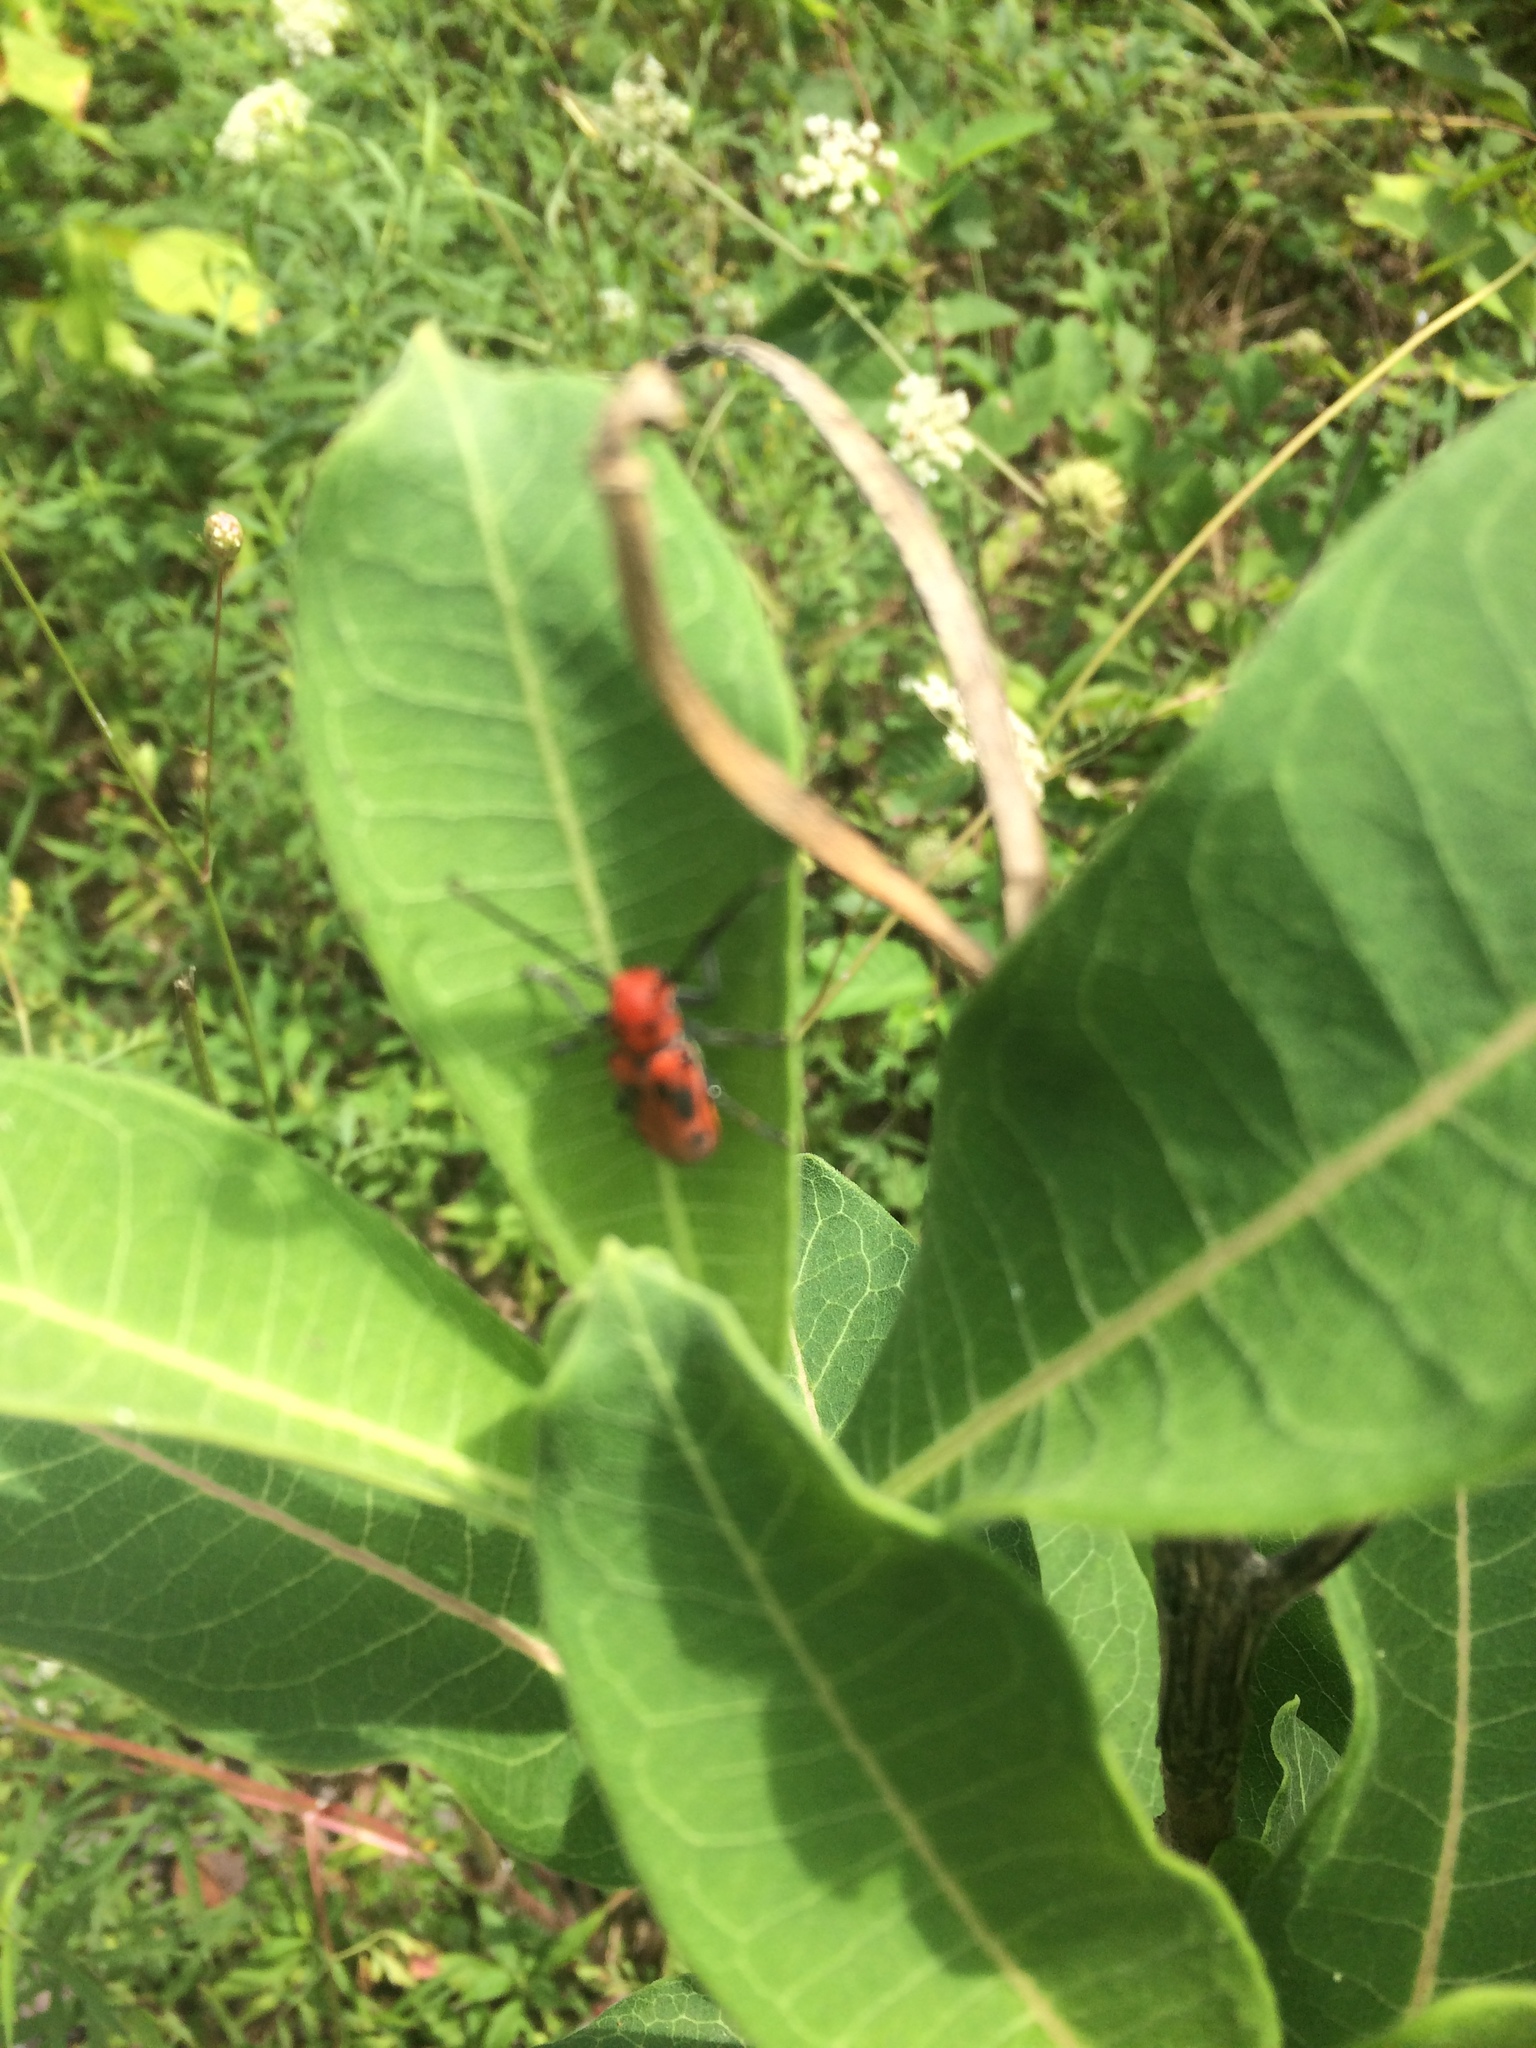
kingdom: Animalia
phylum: Arthropoda
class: Insecta
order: Coleoptera
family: Cerambycidae
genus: Tetraopes
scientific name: Tetraopes tetrophthalmus
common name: Red milkweed beetle
